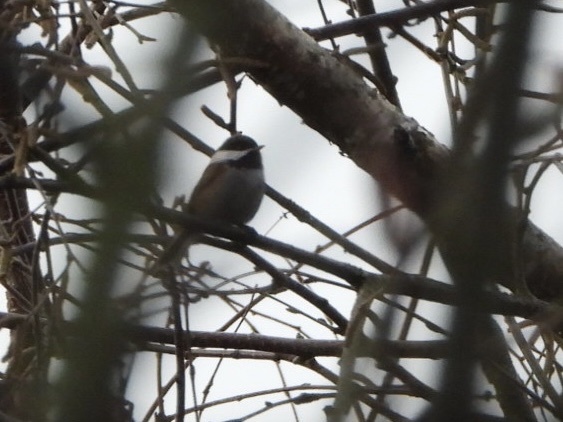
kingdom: Animalia
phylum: Chordata
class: Aves
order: Passeriformes
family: Paridae
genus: Poecile
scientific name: Poecile rufescens
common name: Chestnut-backed chickadee
